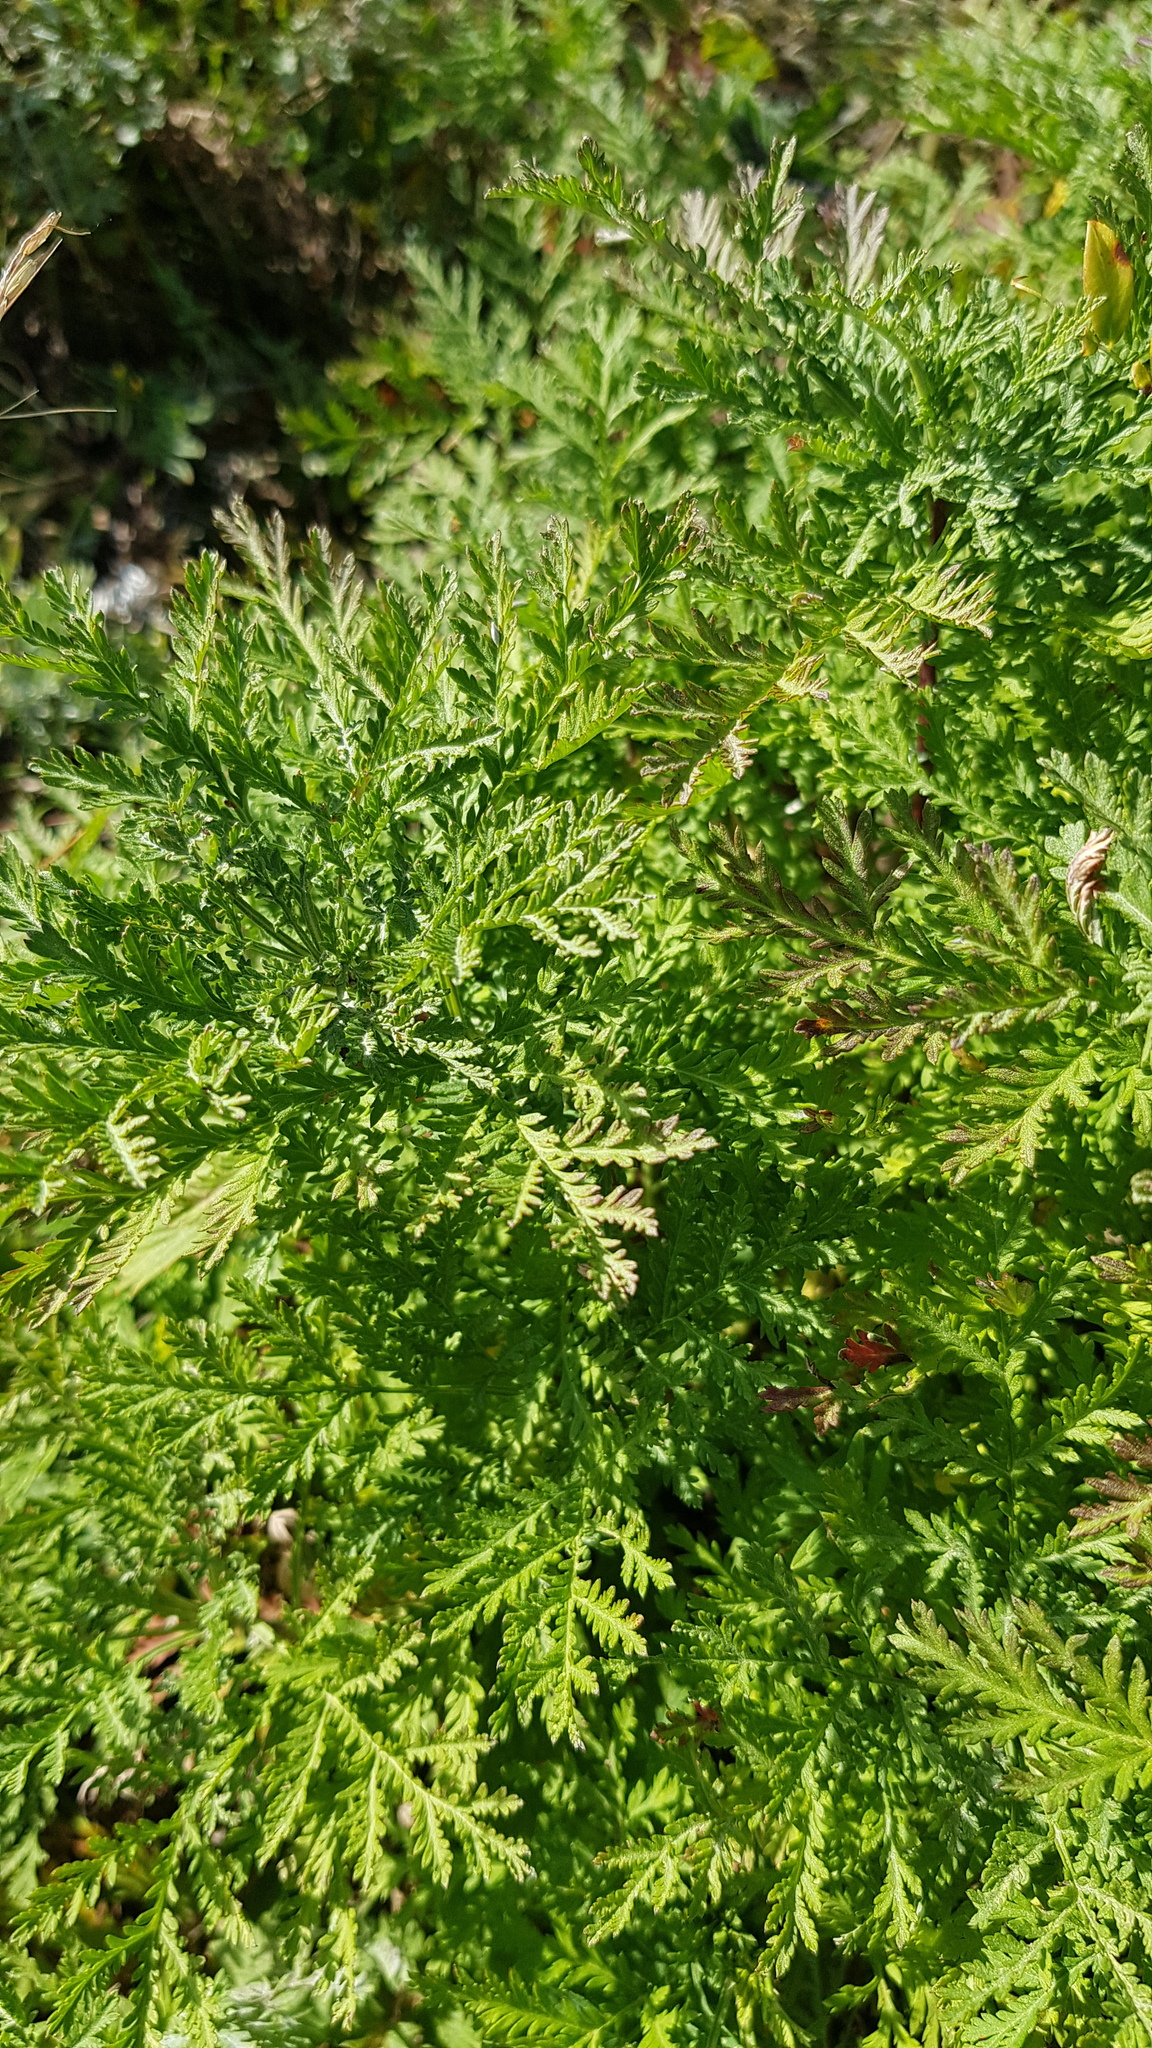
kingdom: Plantae
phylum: Tracheophyta
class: Magnoliopsida
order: Asterales
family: Asteraceae
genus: Artemisia
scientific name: Artemisia gmelinii
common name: Gmelin's wormwood
